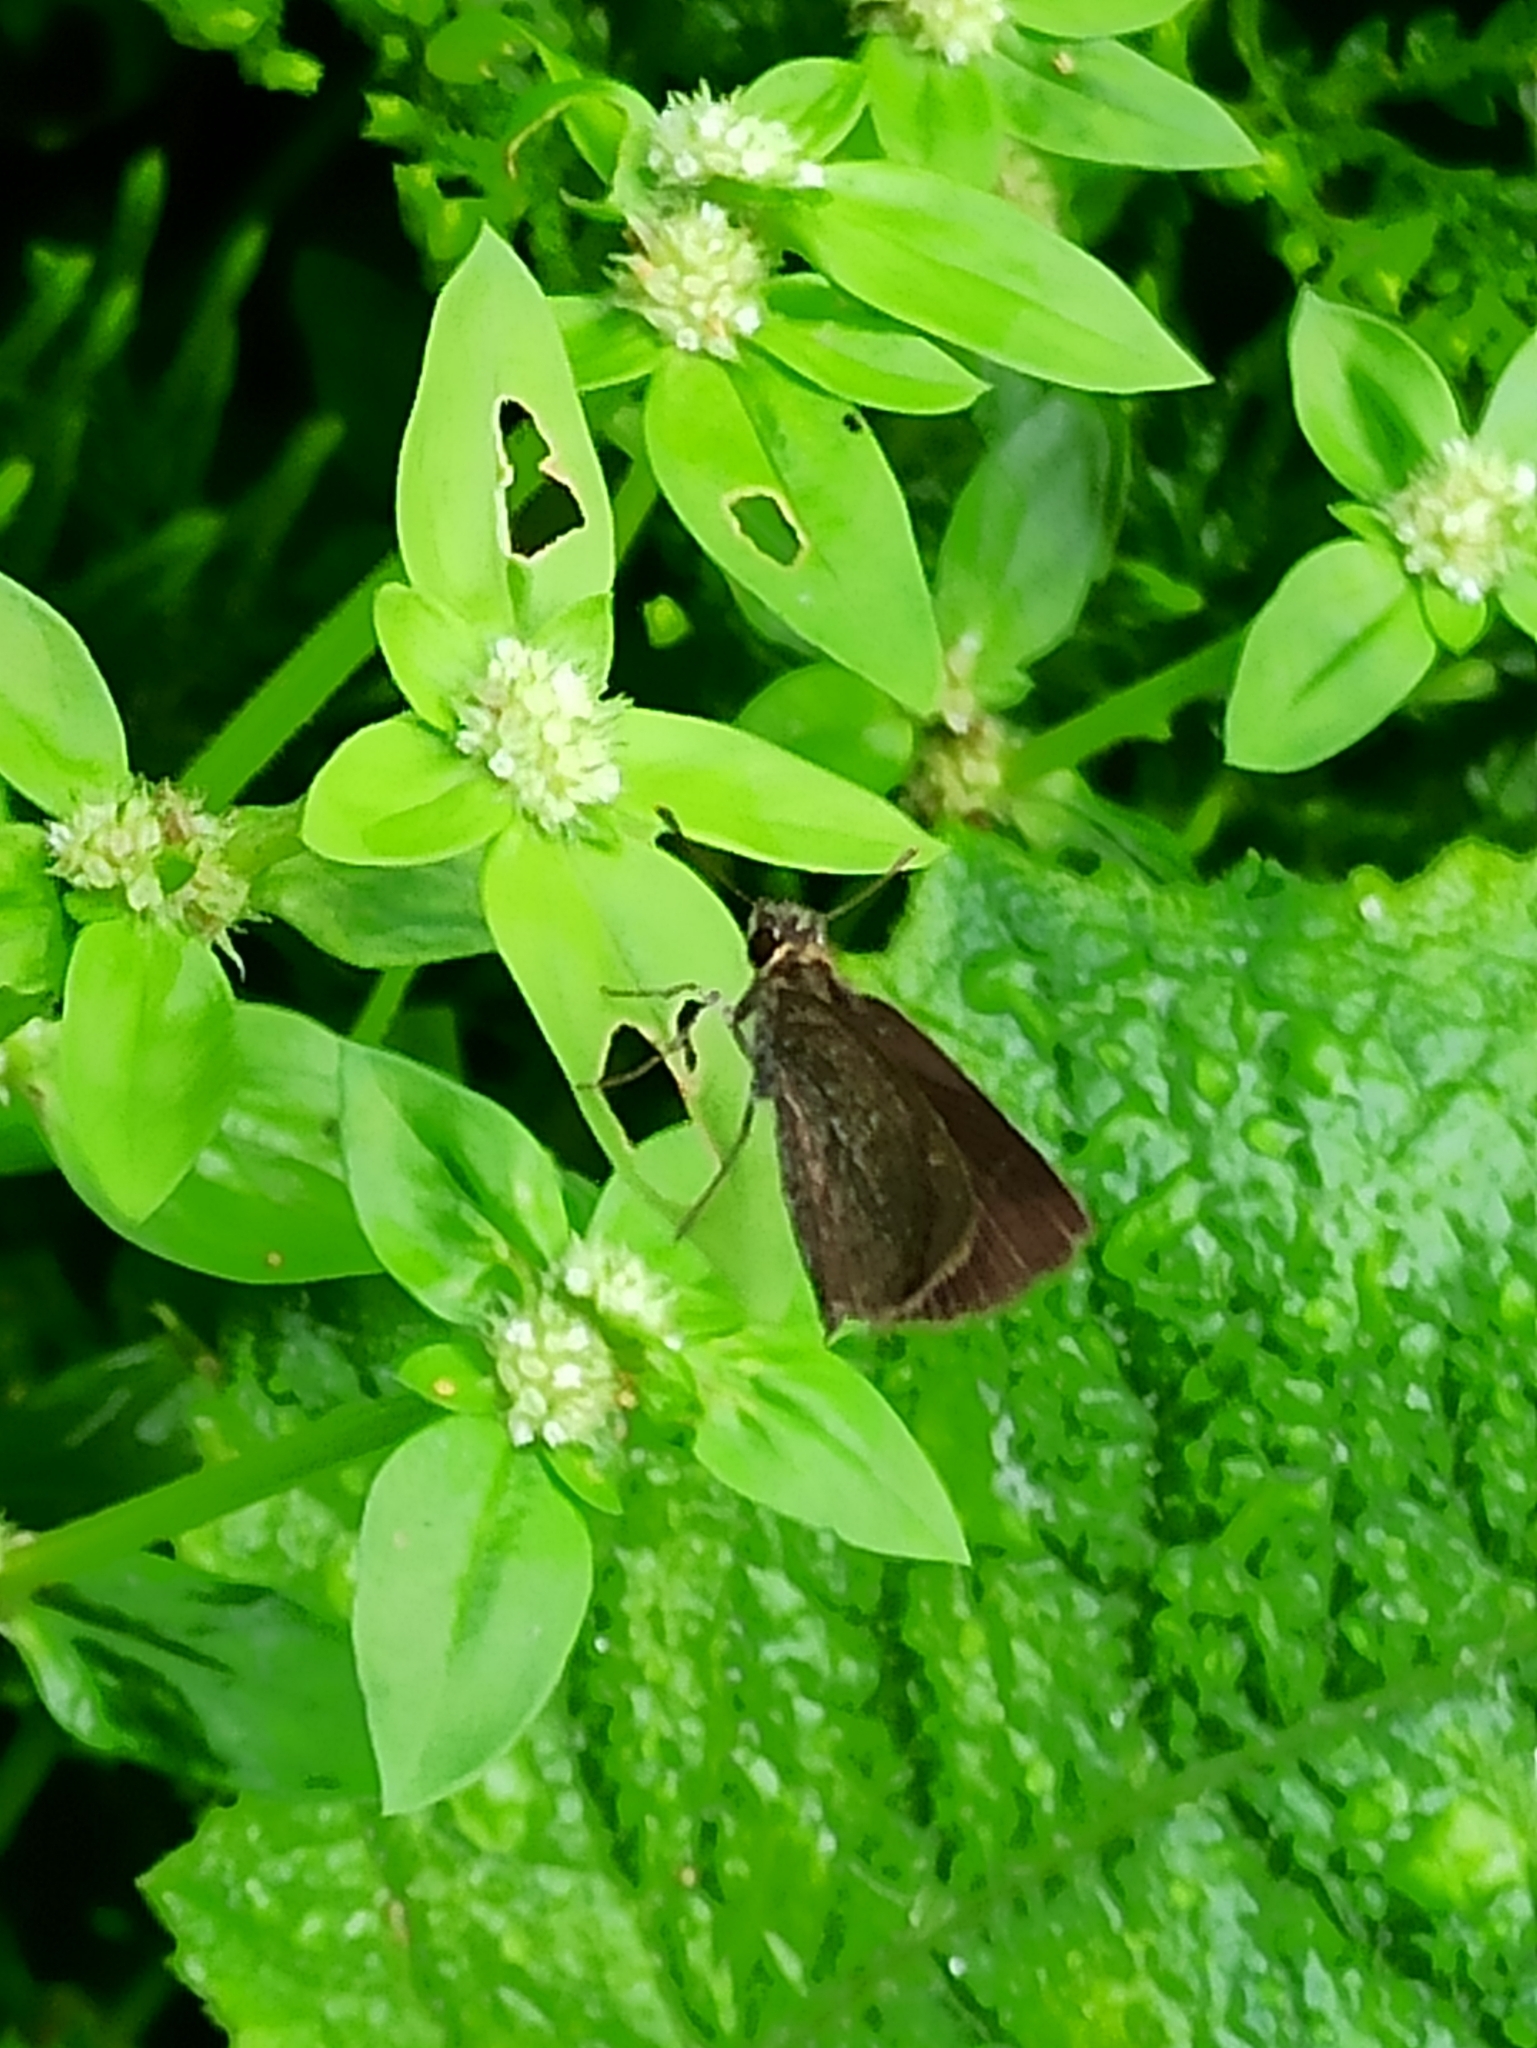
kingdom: Animalia
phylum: Arthropoda
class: Insecta
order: Lepidoptera
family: Hesperiidae
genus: Aeromachus
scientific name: Aeromachus pygmaeus
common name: Pygmy scrub hopper
